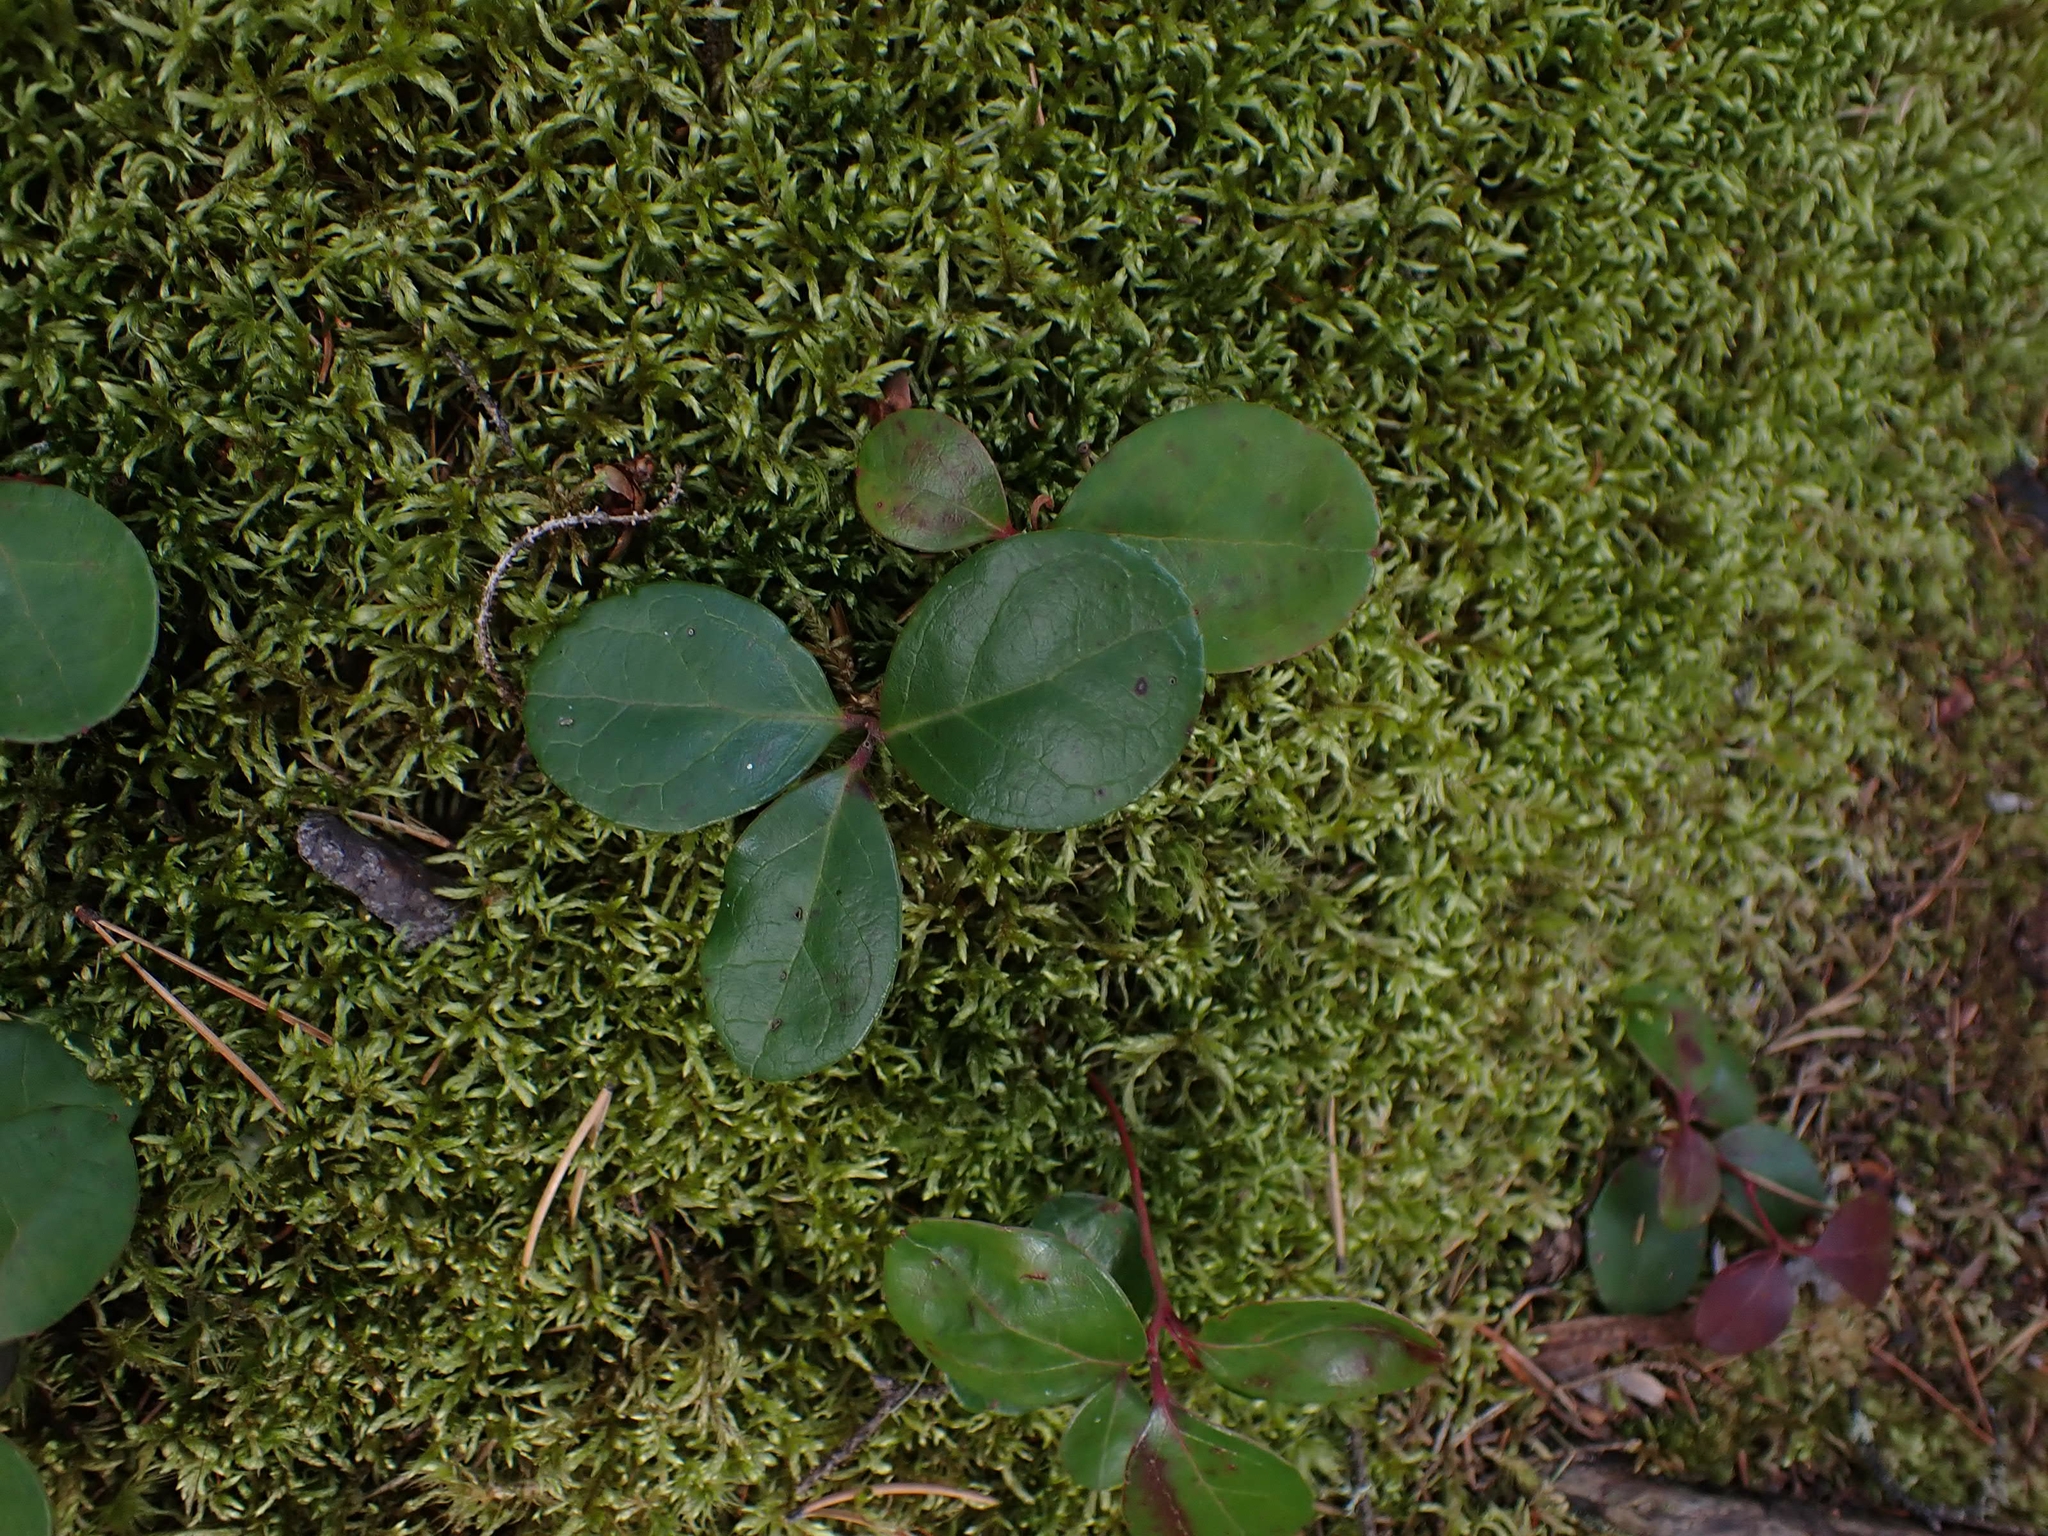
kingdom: Plantae
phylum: Tracheophyta
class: Magnoliopsida
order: Ericales
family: Ericaceae
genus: Gaultheria
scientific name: Gaultheria procumbens
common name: Checkerberry
